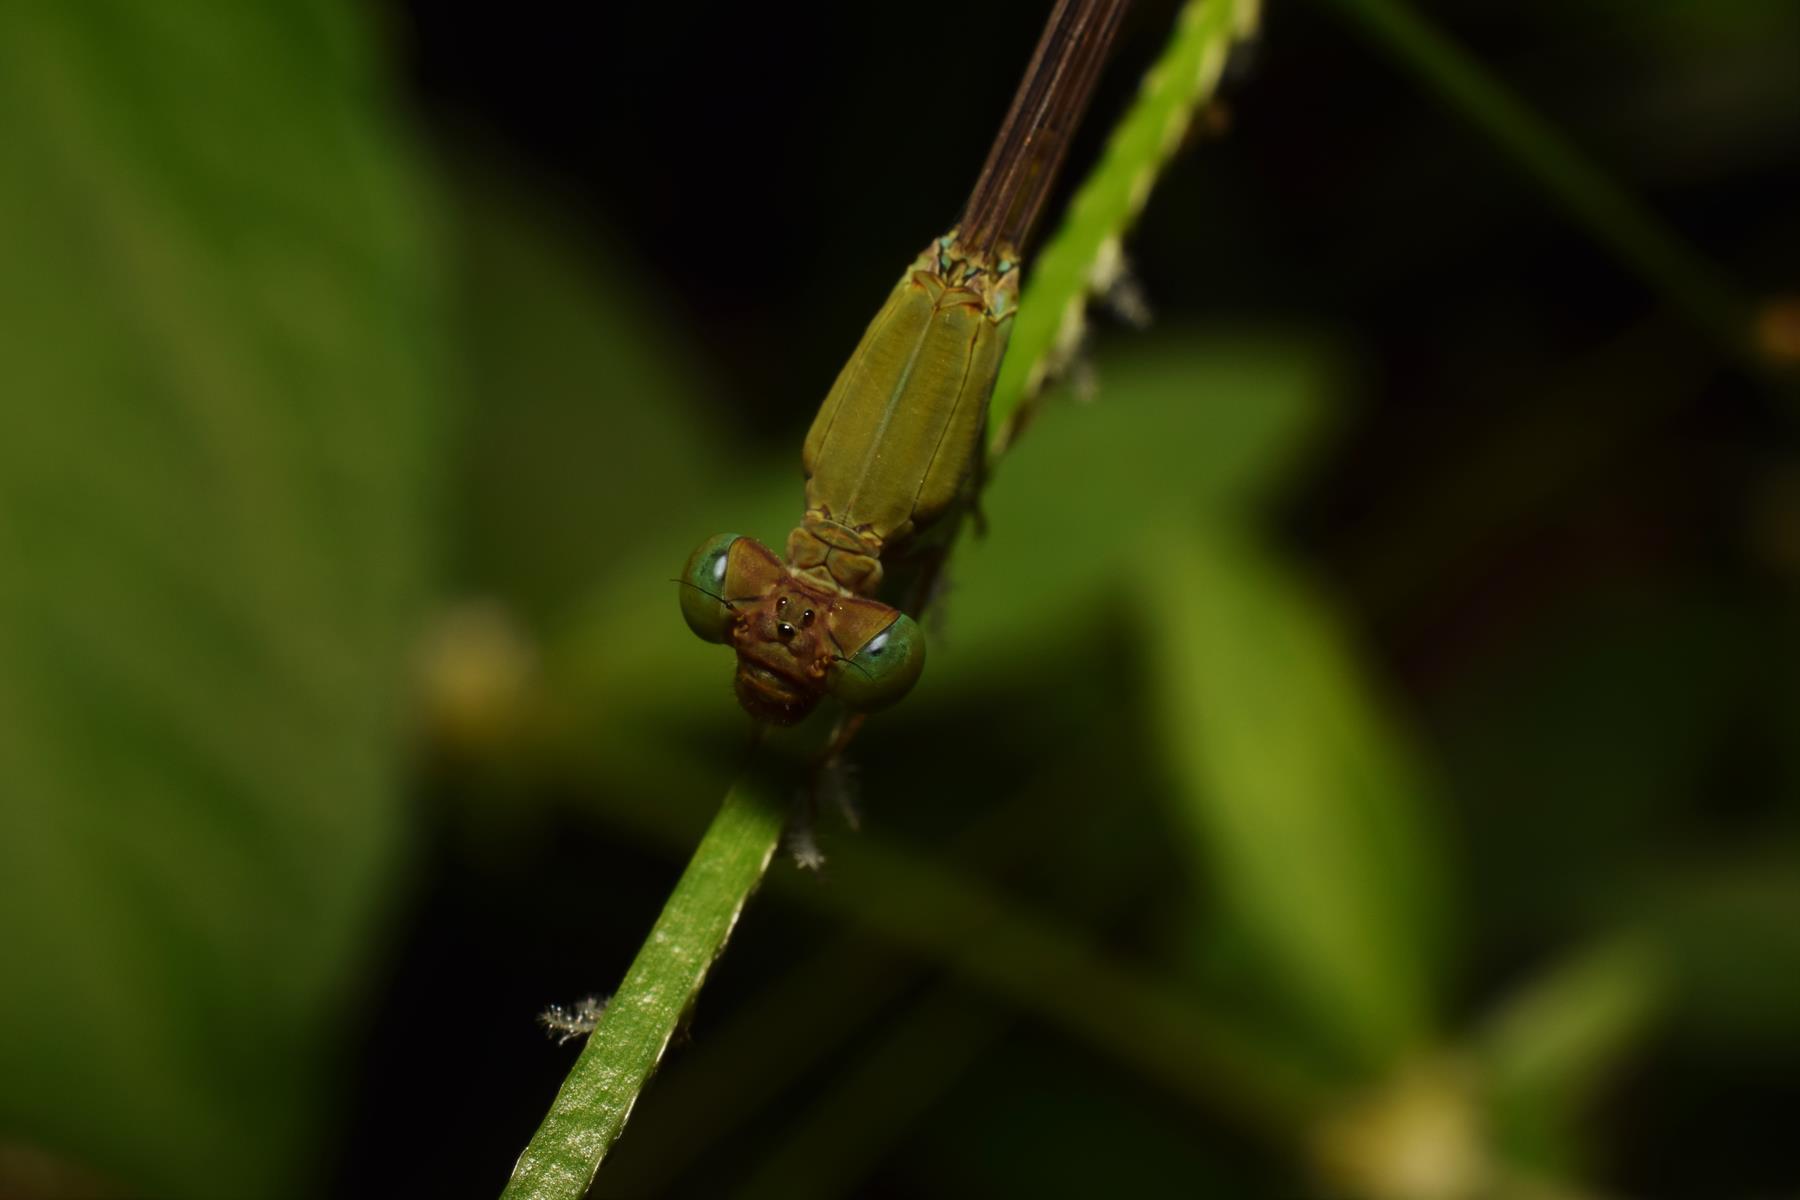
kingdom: Animalia
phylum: Arthropoda
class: Insecta
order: Odonata
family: Coenagrionidae
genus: Ceriagrion
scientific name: Ceriagrion olivaceum
